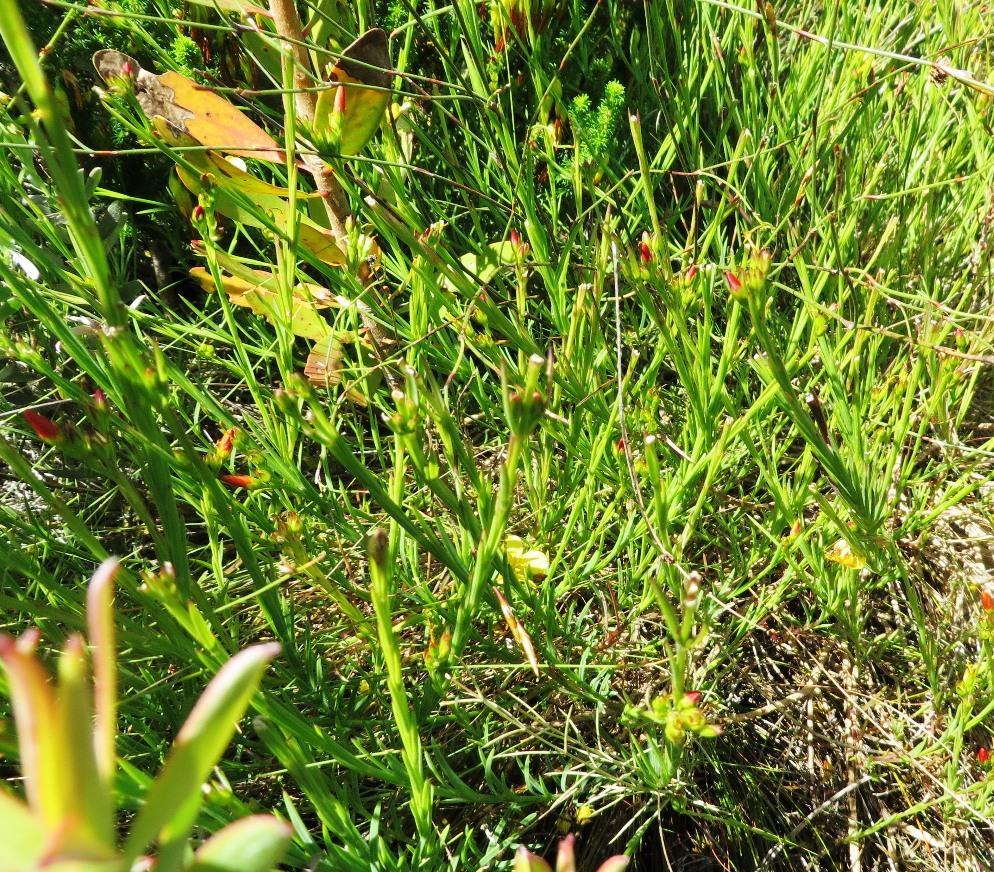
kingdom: Plantae
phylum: Tracheophyta
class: Magnoliopsida
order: Malpighiales
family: Linaceae
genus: Linum
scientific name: Linum africanum
